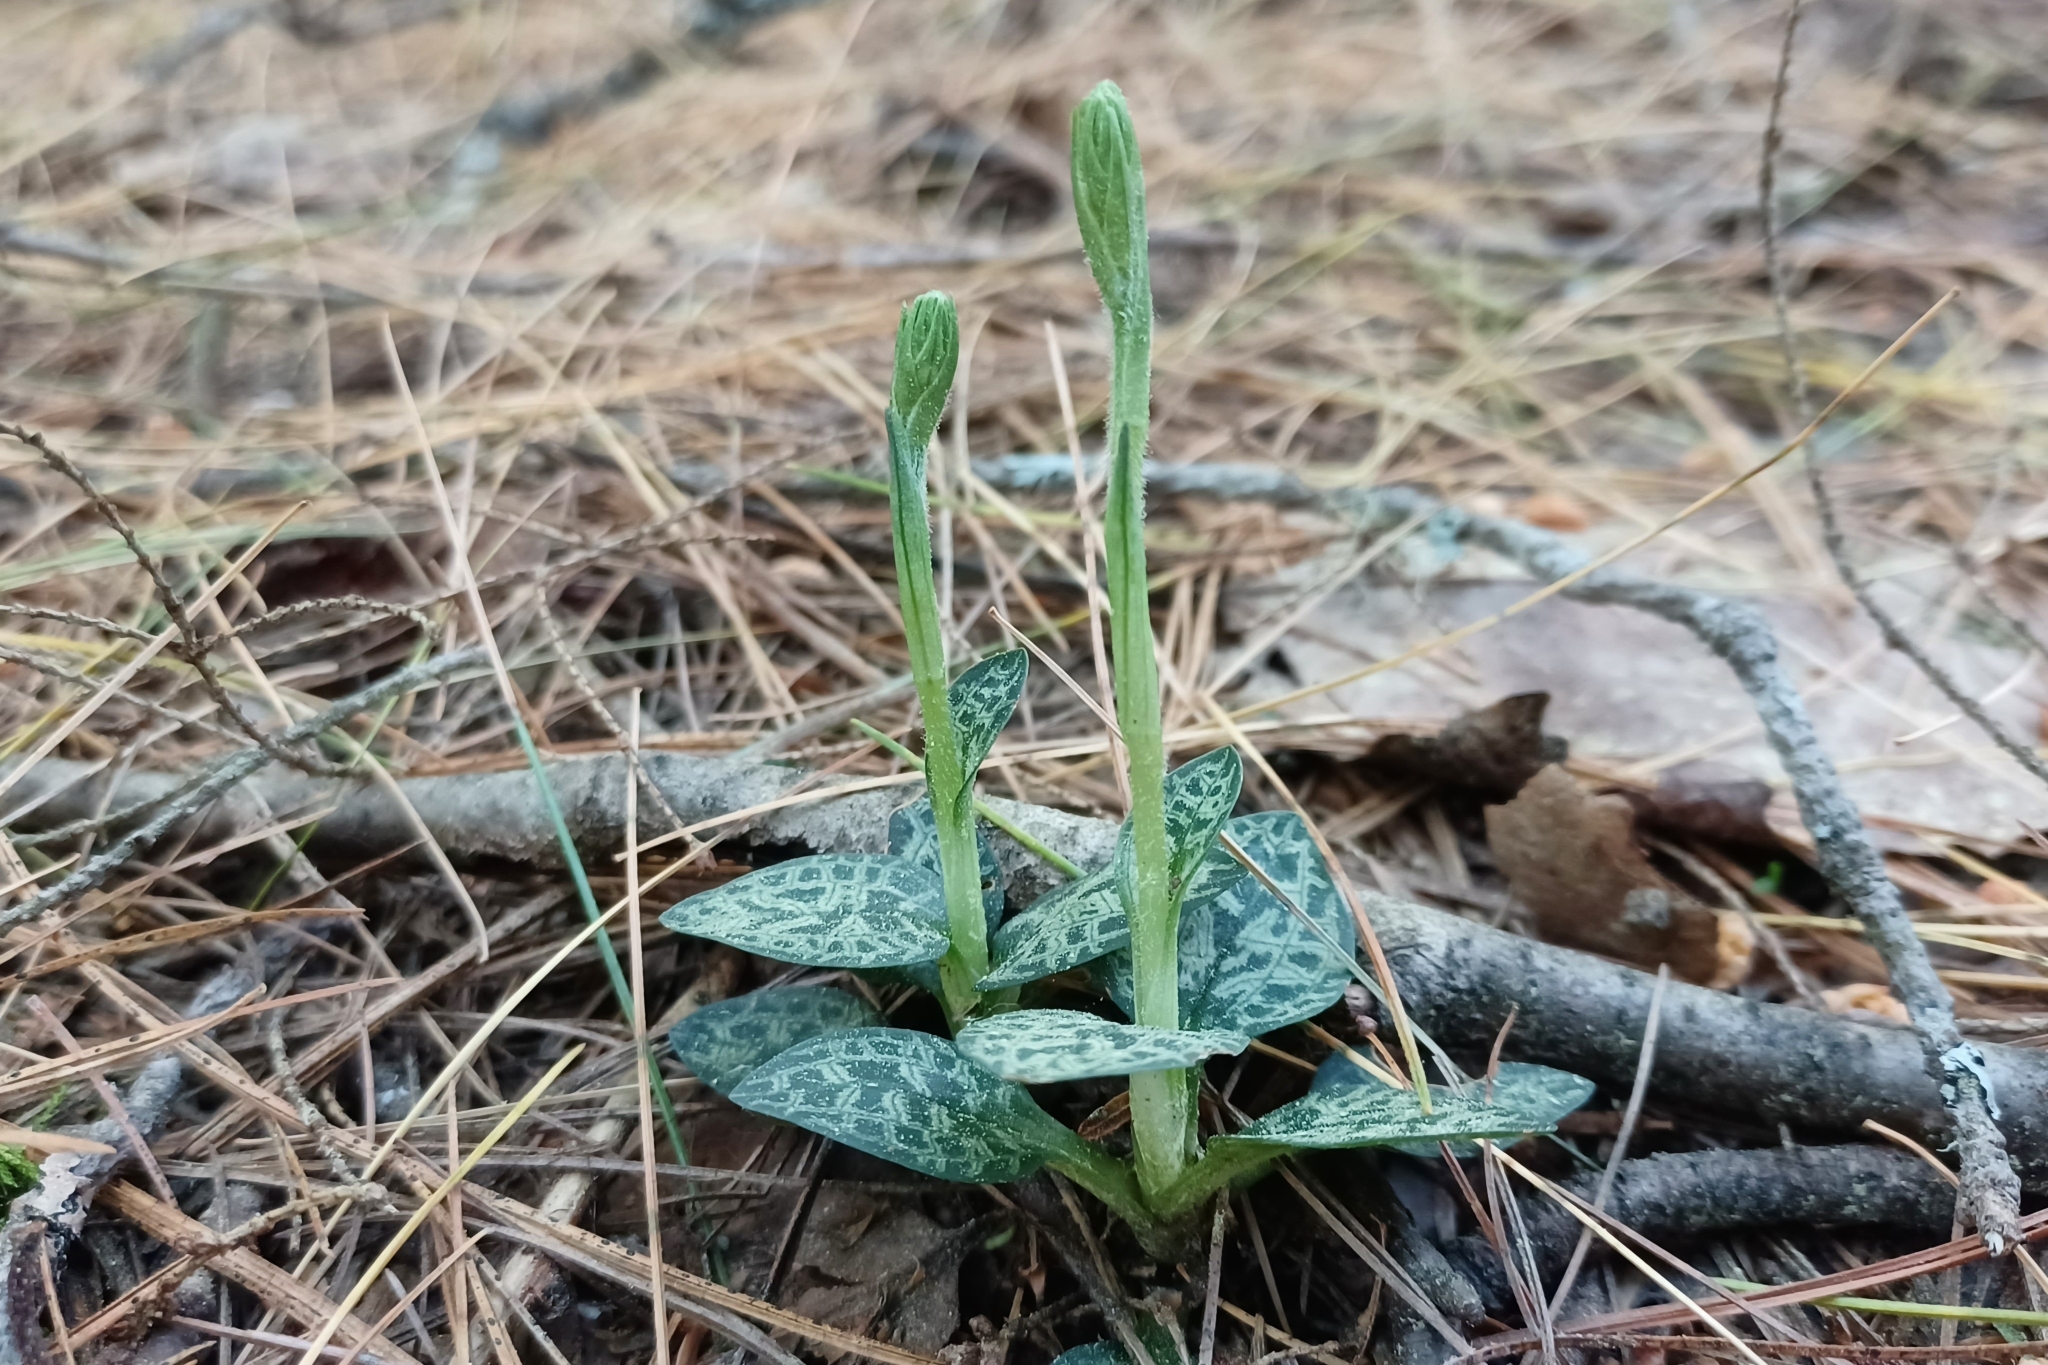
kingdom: Plantae
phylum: Tracheophyta
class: Liliopsida
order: Asparagales
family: Orchidaceae
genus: Goodyera
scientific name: Goodyera repens
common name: Creeping lady's-tresses
